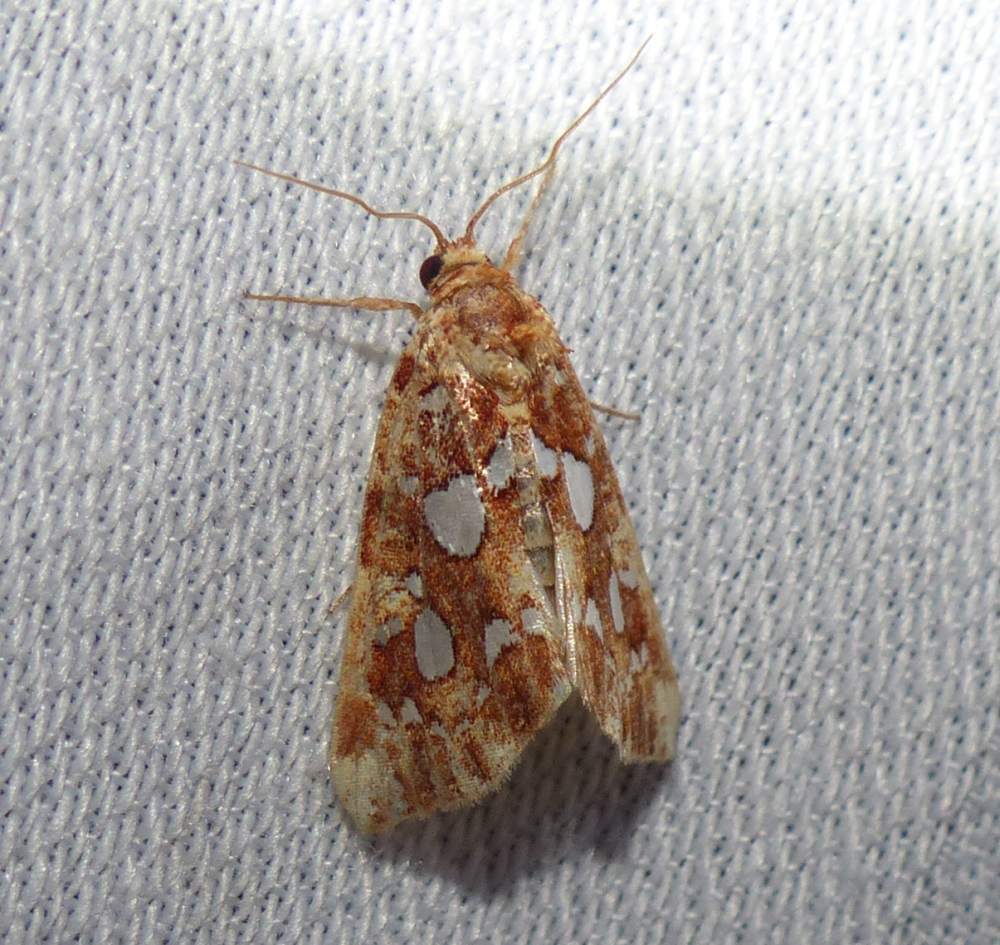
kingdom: Animalia
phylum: Arthropoda
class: Insecta
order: Lepidoptera
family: Noctuidae
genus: Callopistria
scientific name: Callopistria cordata
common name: Silver-spotted fern moth
